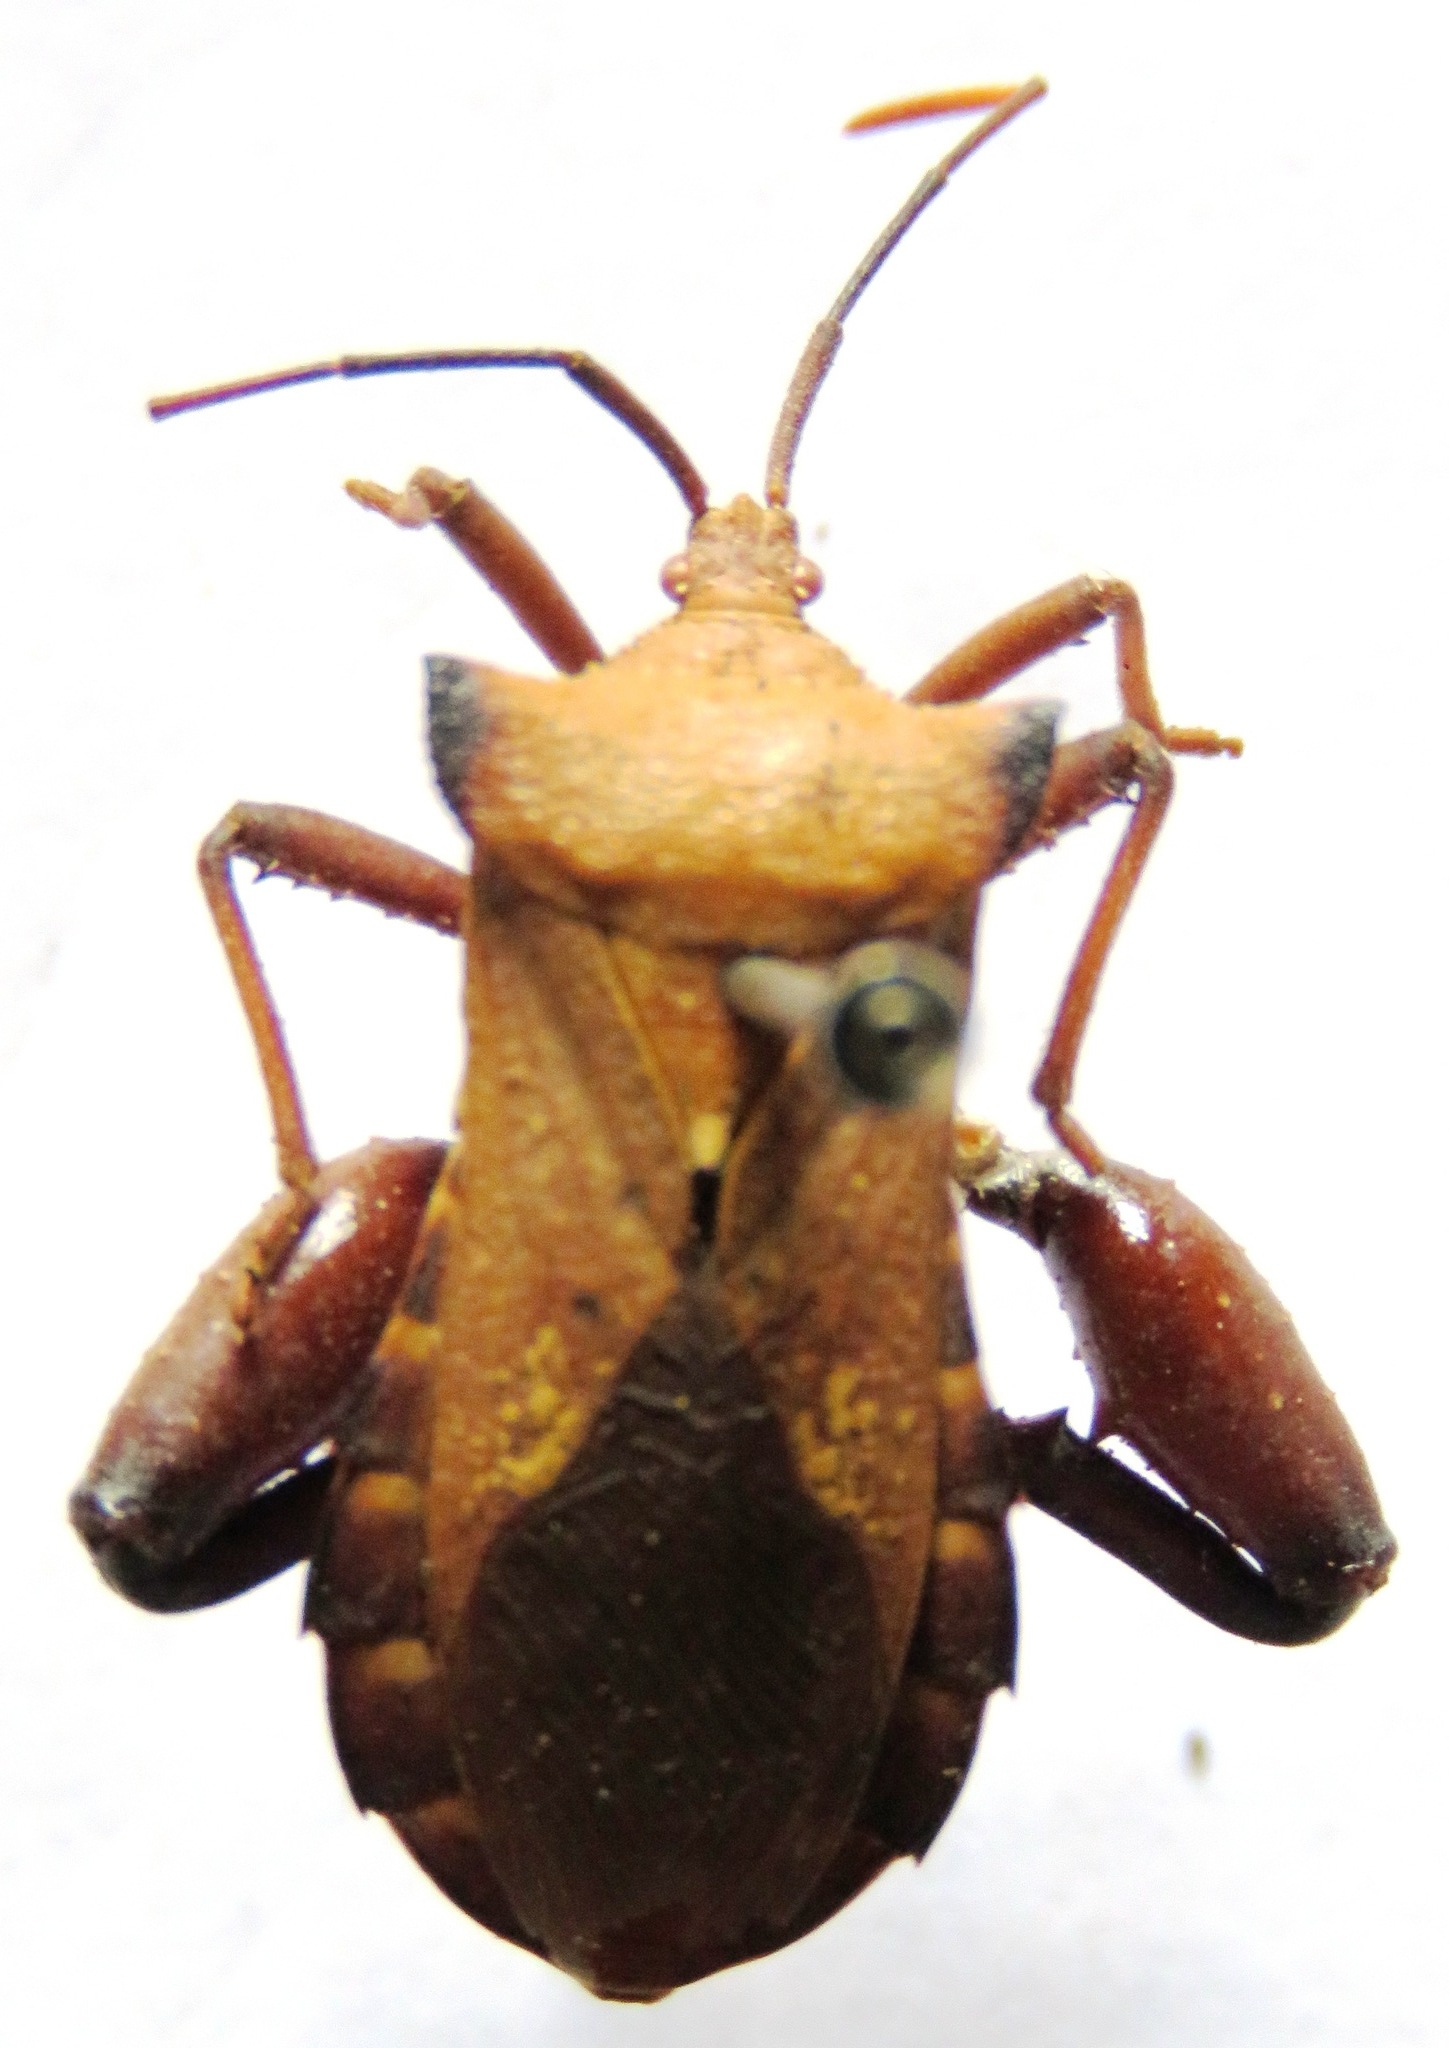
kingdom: Animalia
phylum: Arthropoda
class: Insecta
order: Hemiptera
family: Coreidae
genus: Mozena
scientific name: Mozena lurida
